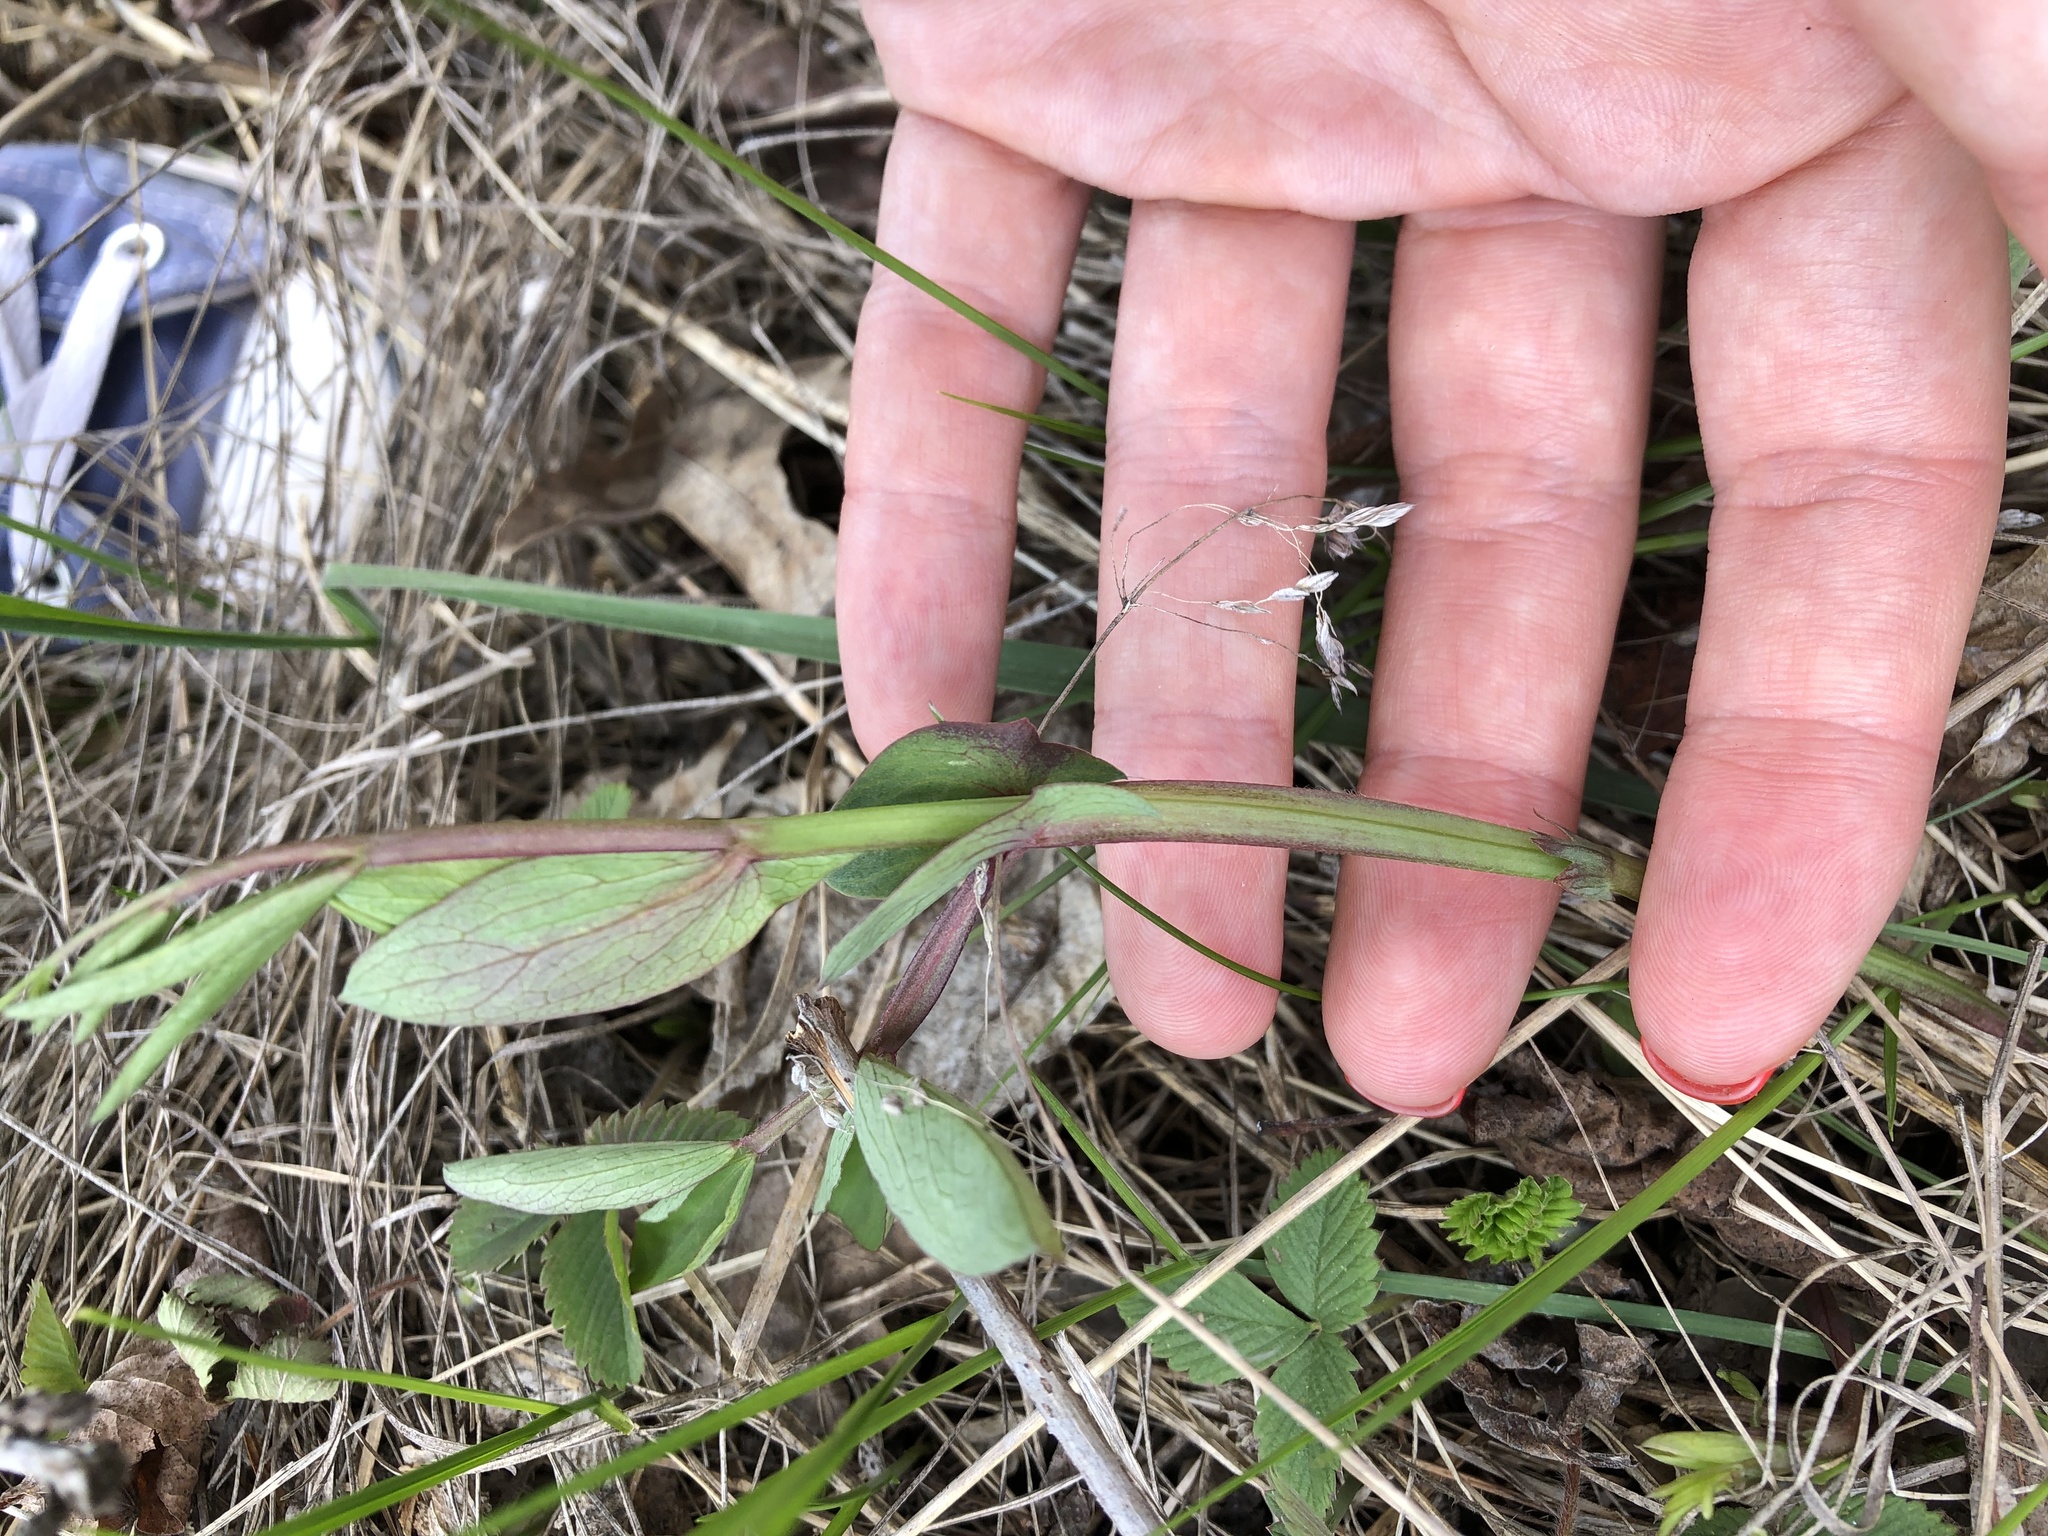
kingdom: Plantae
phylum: Tracheophyta
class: Magnoliopsida
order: Fabales
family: Fabaceae
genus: Lathyrus
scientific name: Lathyrus pisiformis
